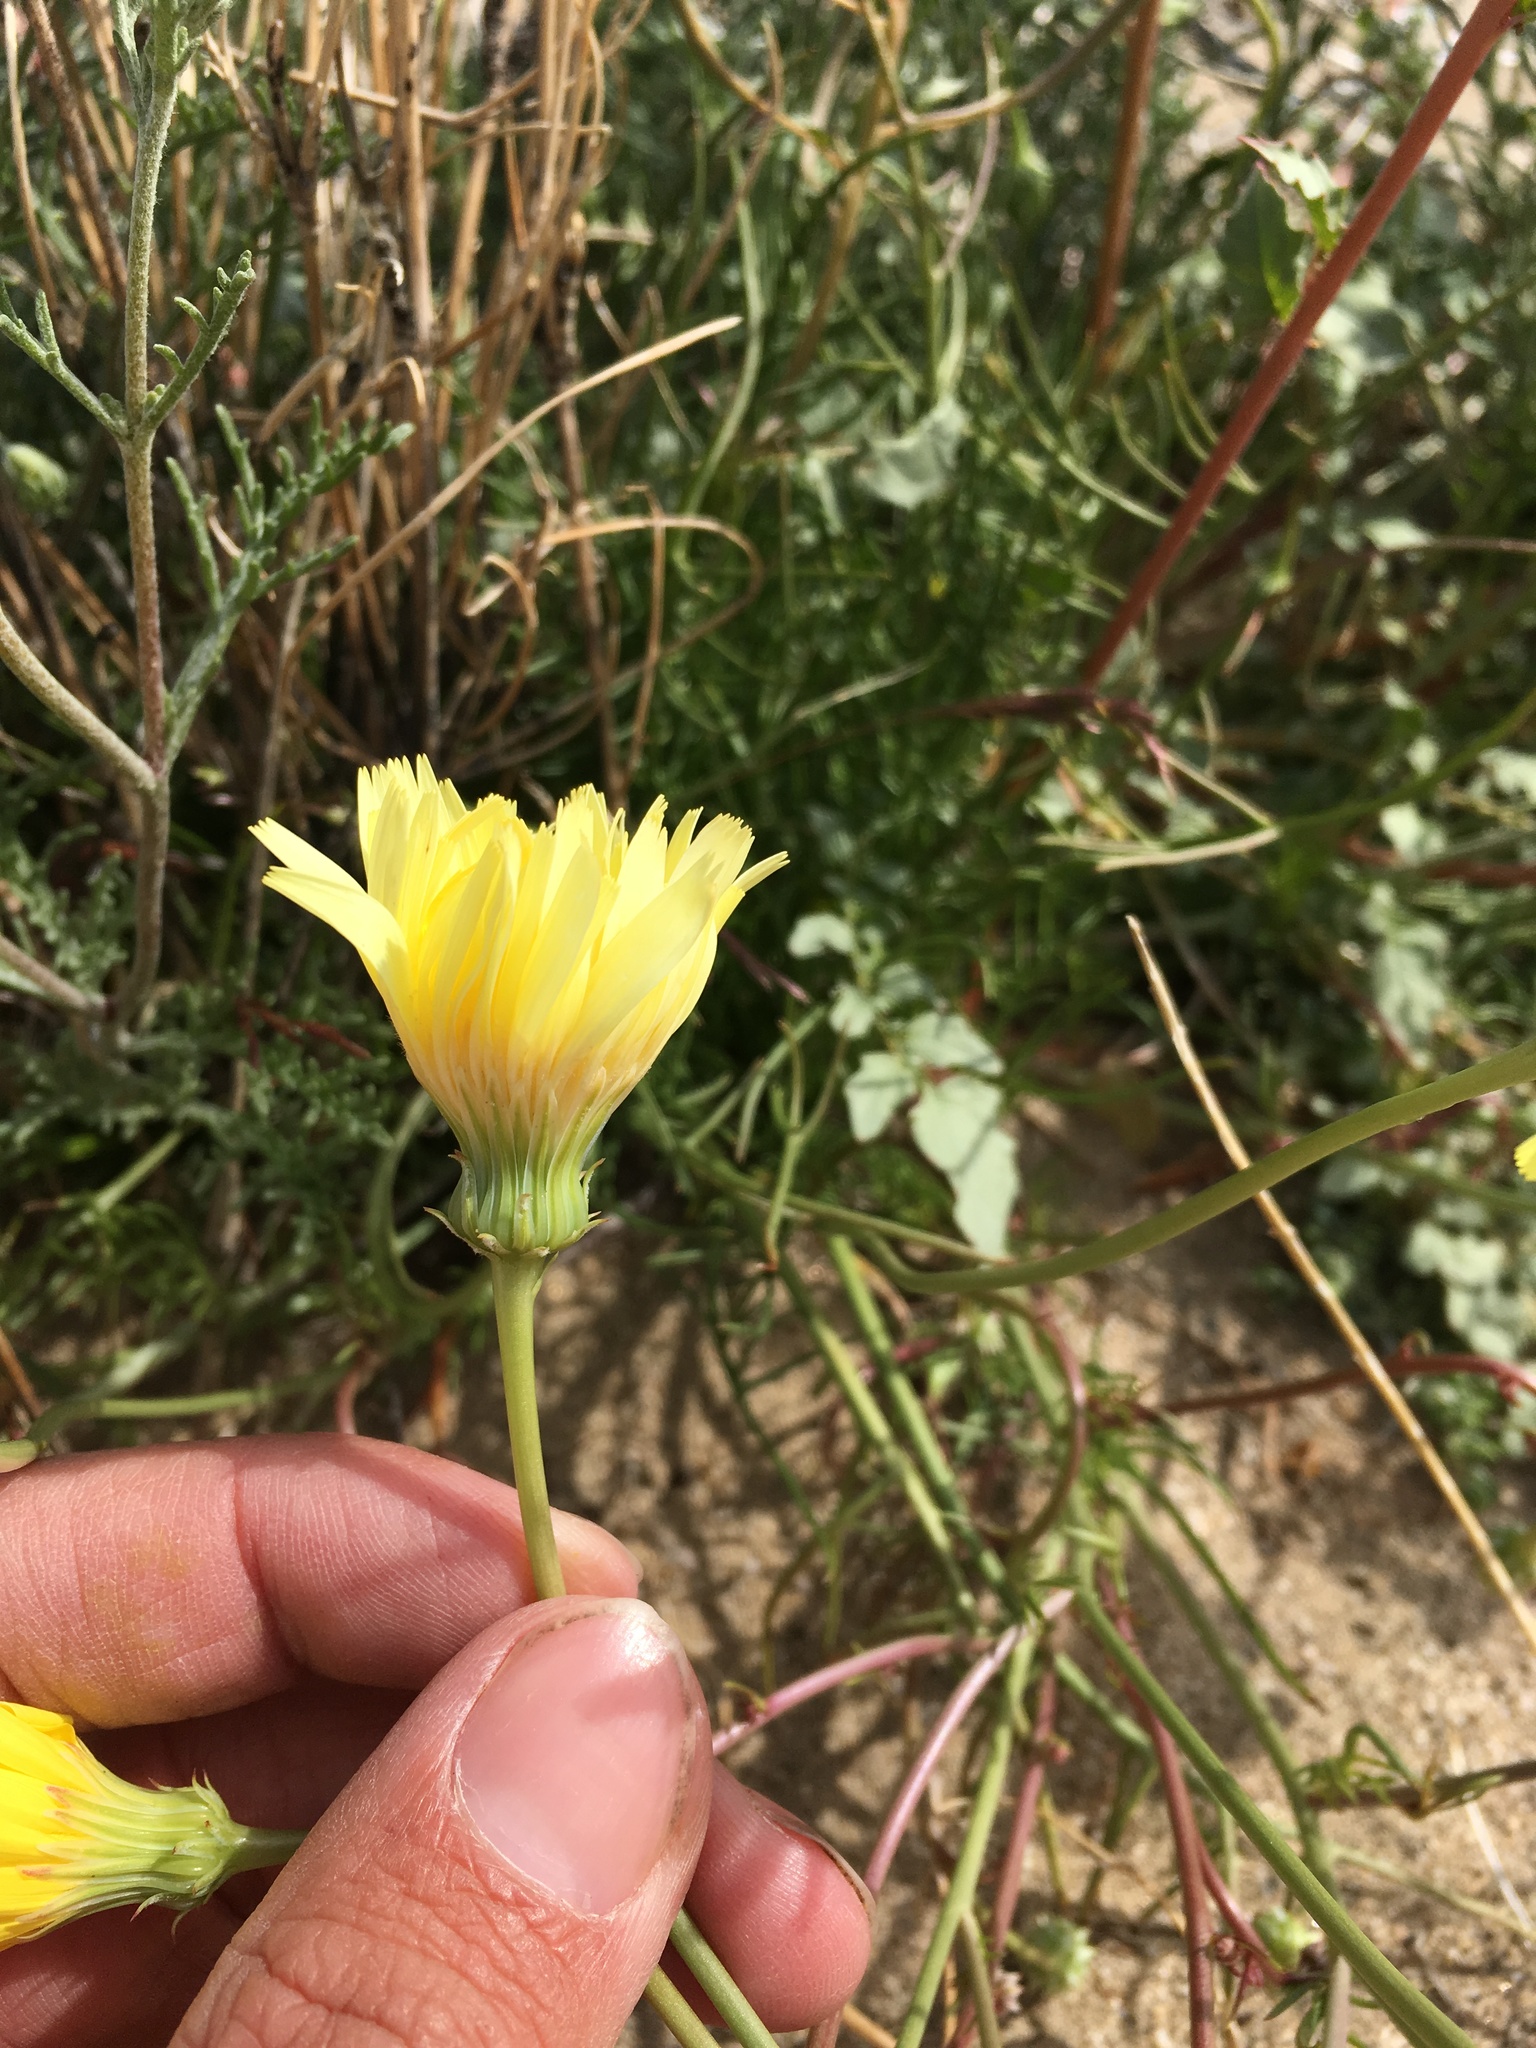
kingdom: Plantae
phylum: Tracheophyta
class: Magnoliopsida
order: Asterales
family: Asteraceae
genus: Malacothrix
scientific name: Malacothrix glabrata
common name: Smooth desert-dandelion
